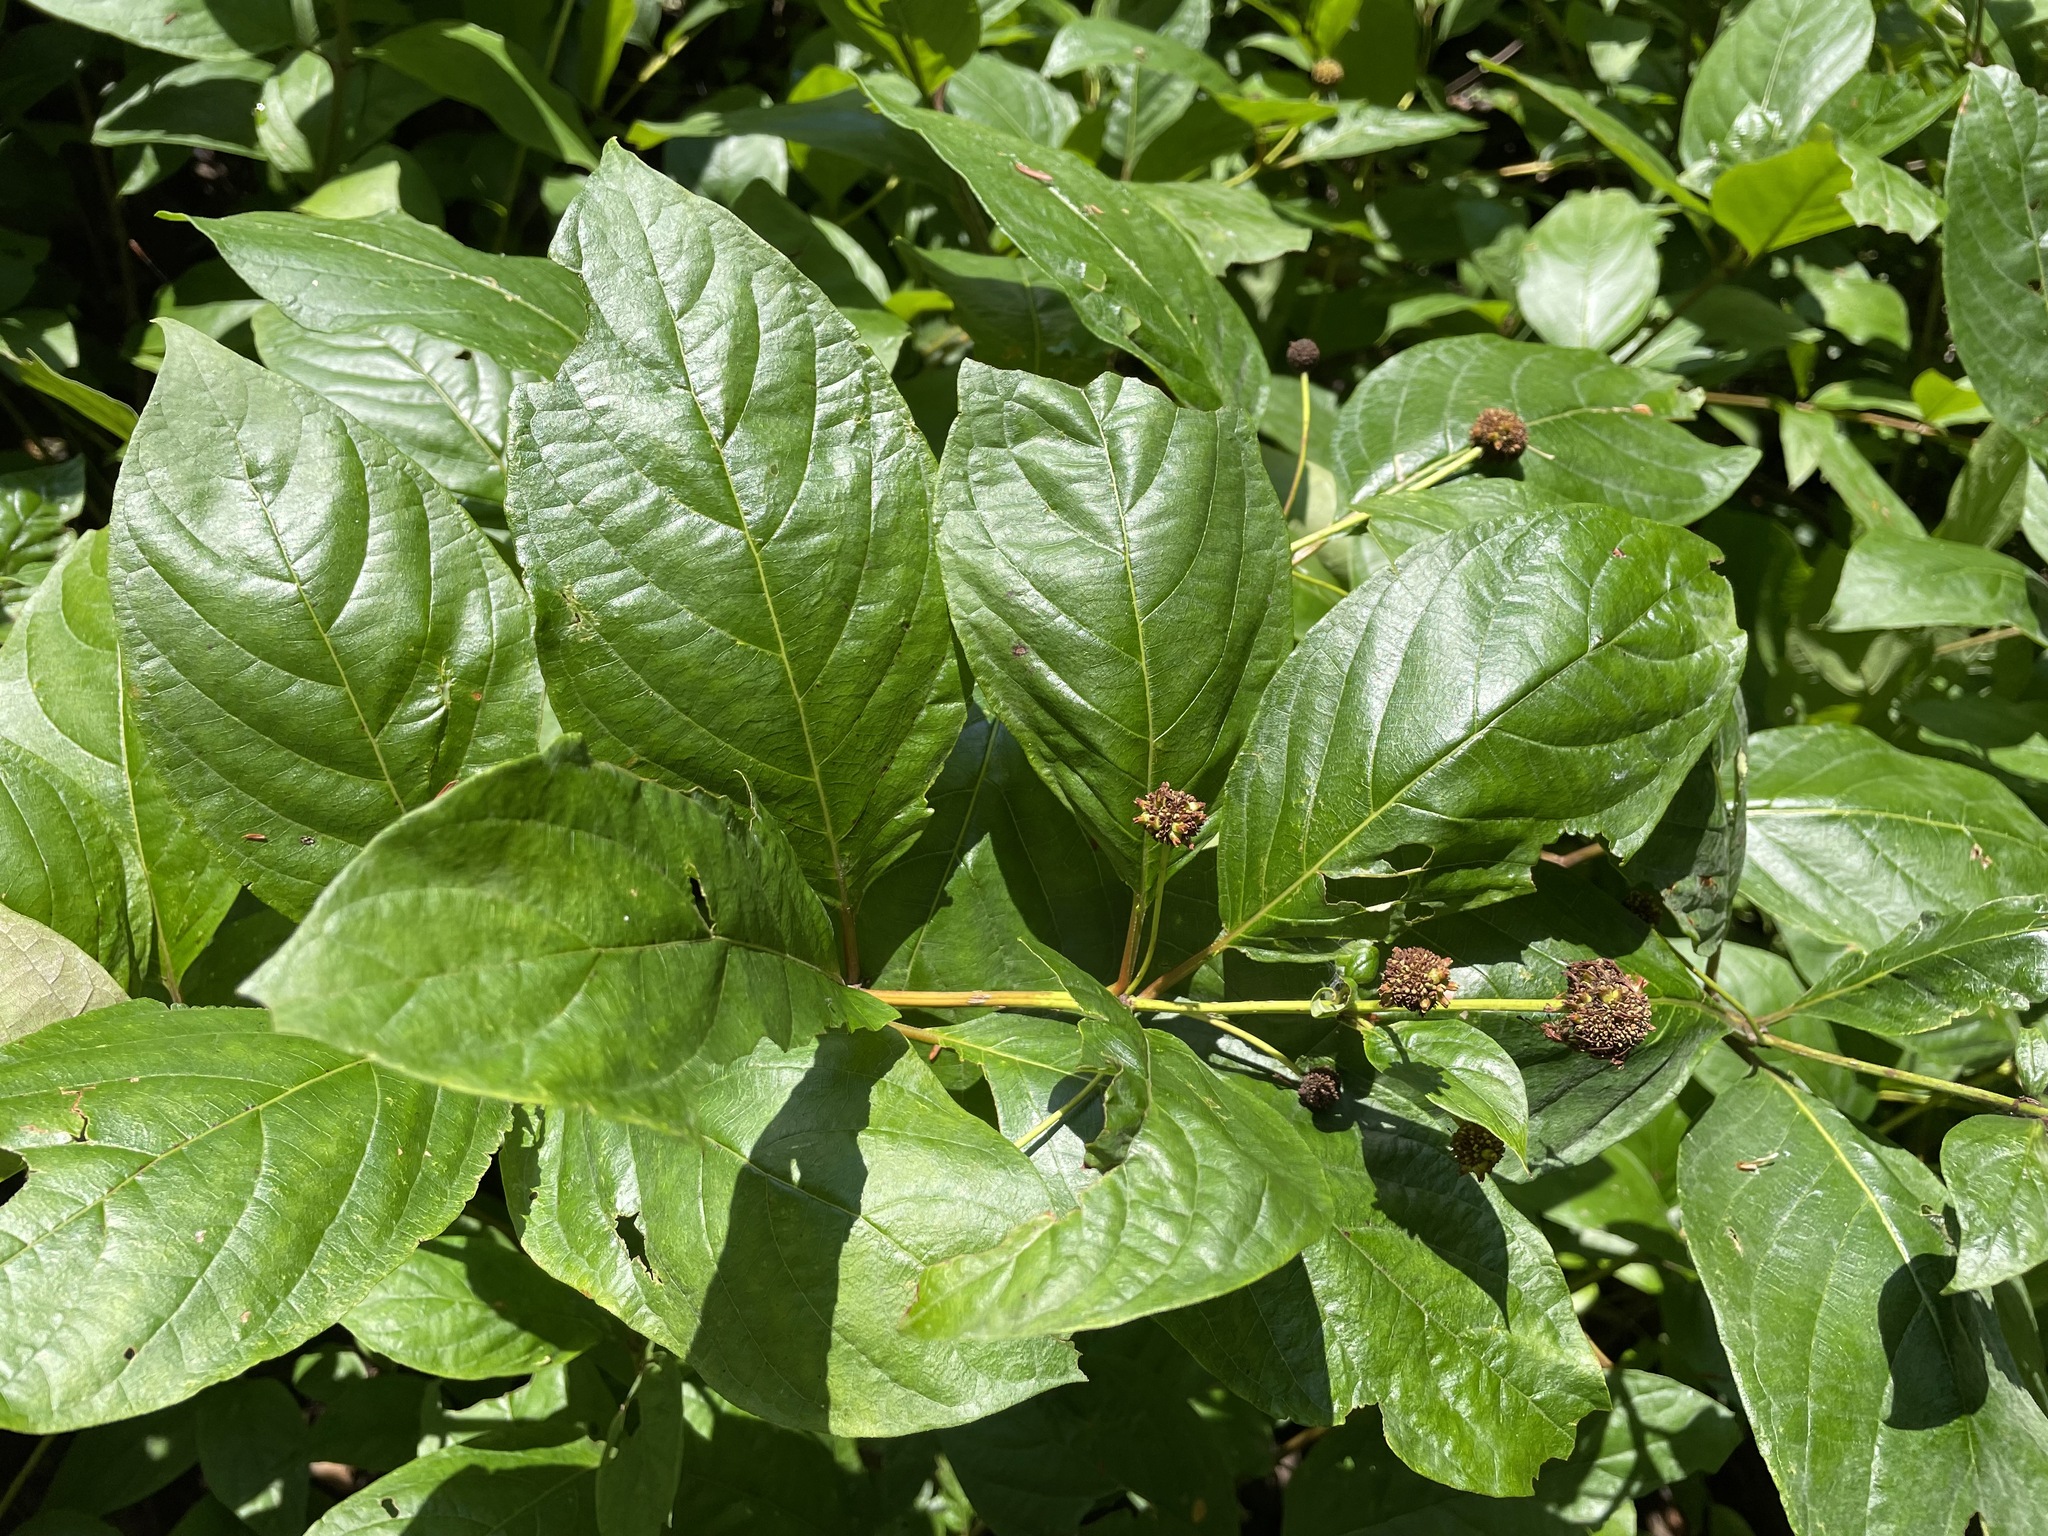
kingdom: Plantae
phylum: Tracheophyta
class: Magnoliopsida
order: Gentianales
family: Rubiaceae
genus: Cephalanthus
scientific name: Cephalanthus occidentalis
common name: Button-willow
